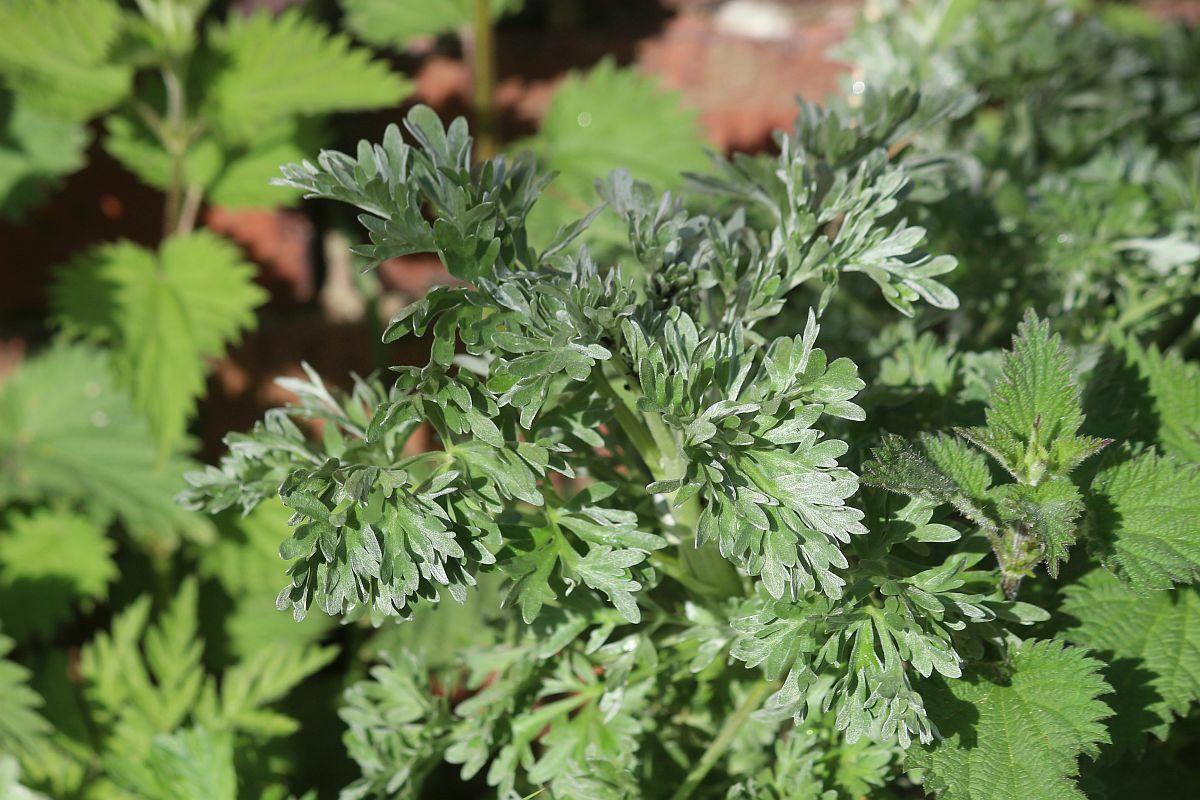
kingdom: Plantae
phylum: Tracheophyta
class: Magnoliopsida
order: Asterales
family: Asteraceae
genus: Artemisia
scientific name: Artemisia absinthium
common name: Wormwood
